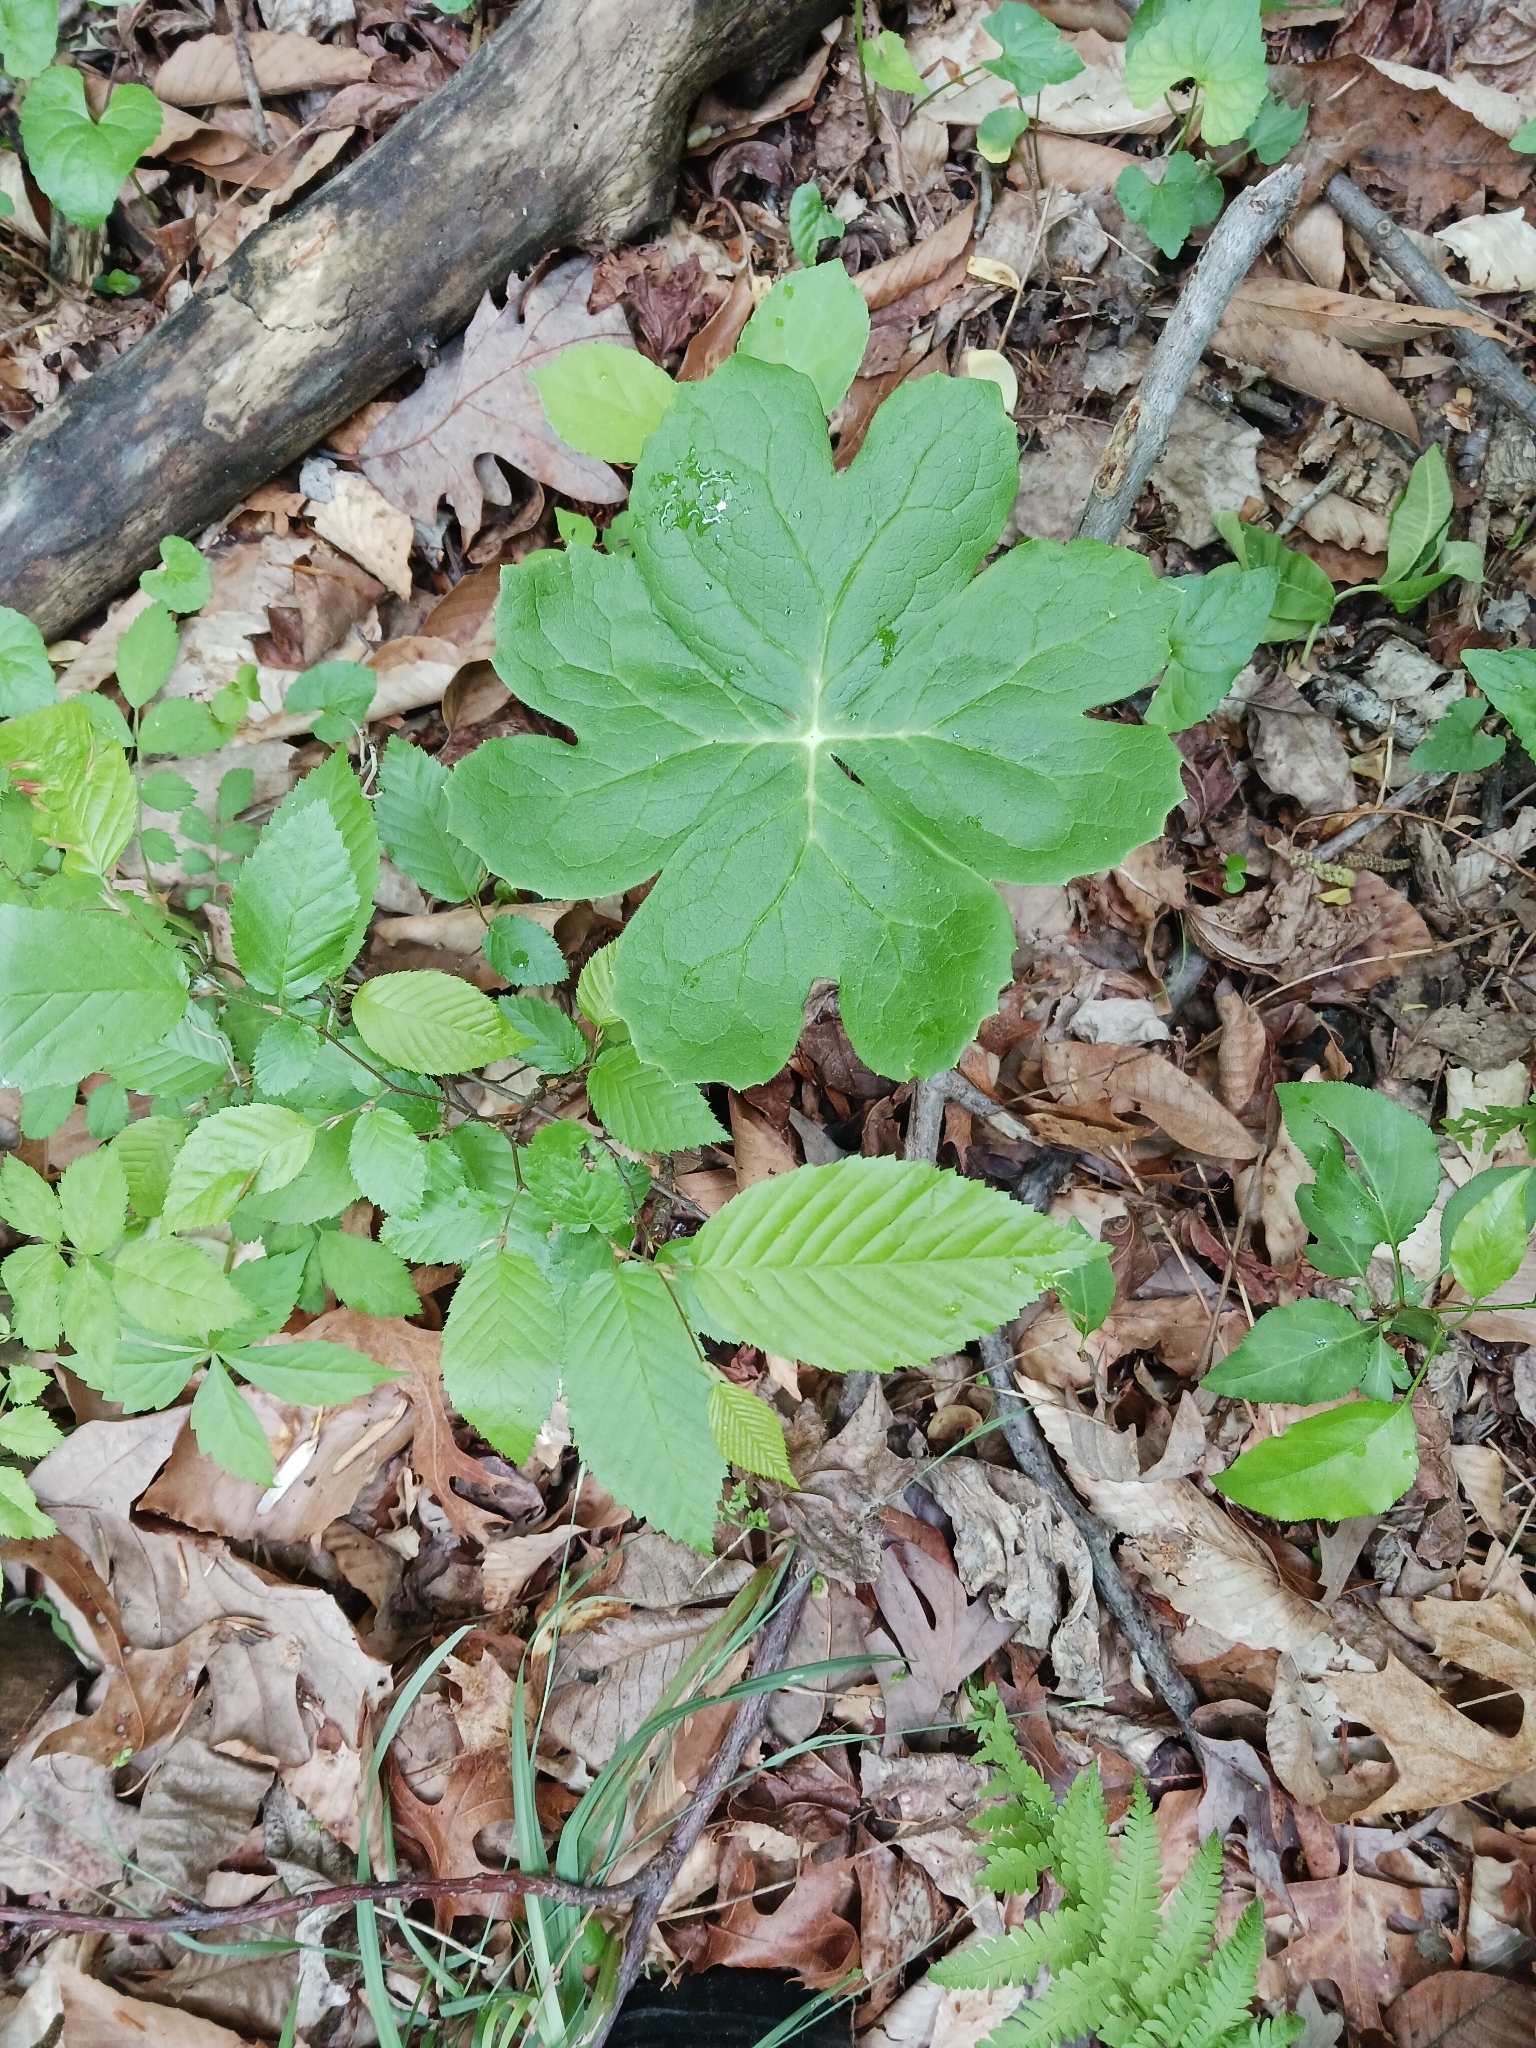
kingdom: Plantae
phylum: Tracheophyta
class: Magnoliopsida
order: Ranunculales
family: Berberidaceae
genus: Podophyllum
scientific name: Podophyllum peltatum
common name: Wild mandrake
